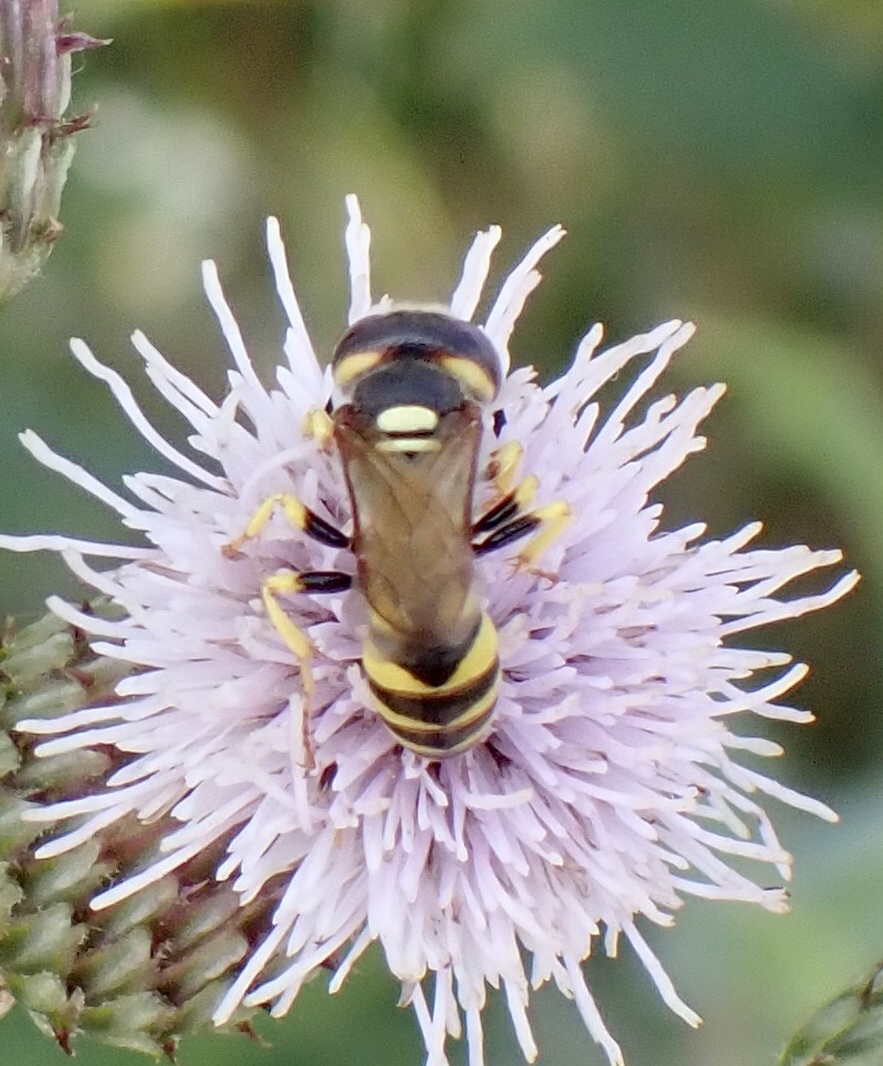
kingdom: Animalia
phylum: Arthropoda
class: Insecta
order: Hymenoptera
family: Crabronidae
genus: Philanthus
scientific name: Philanthus triangulum
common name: Bee wolf
